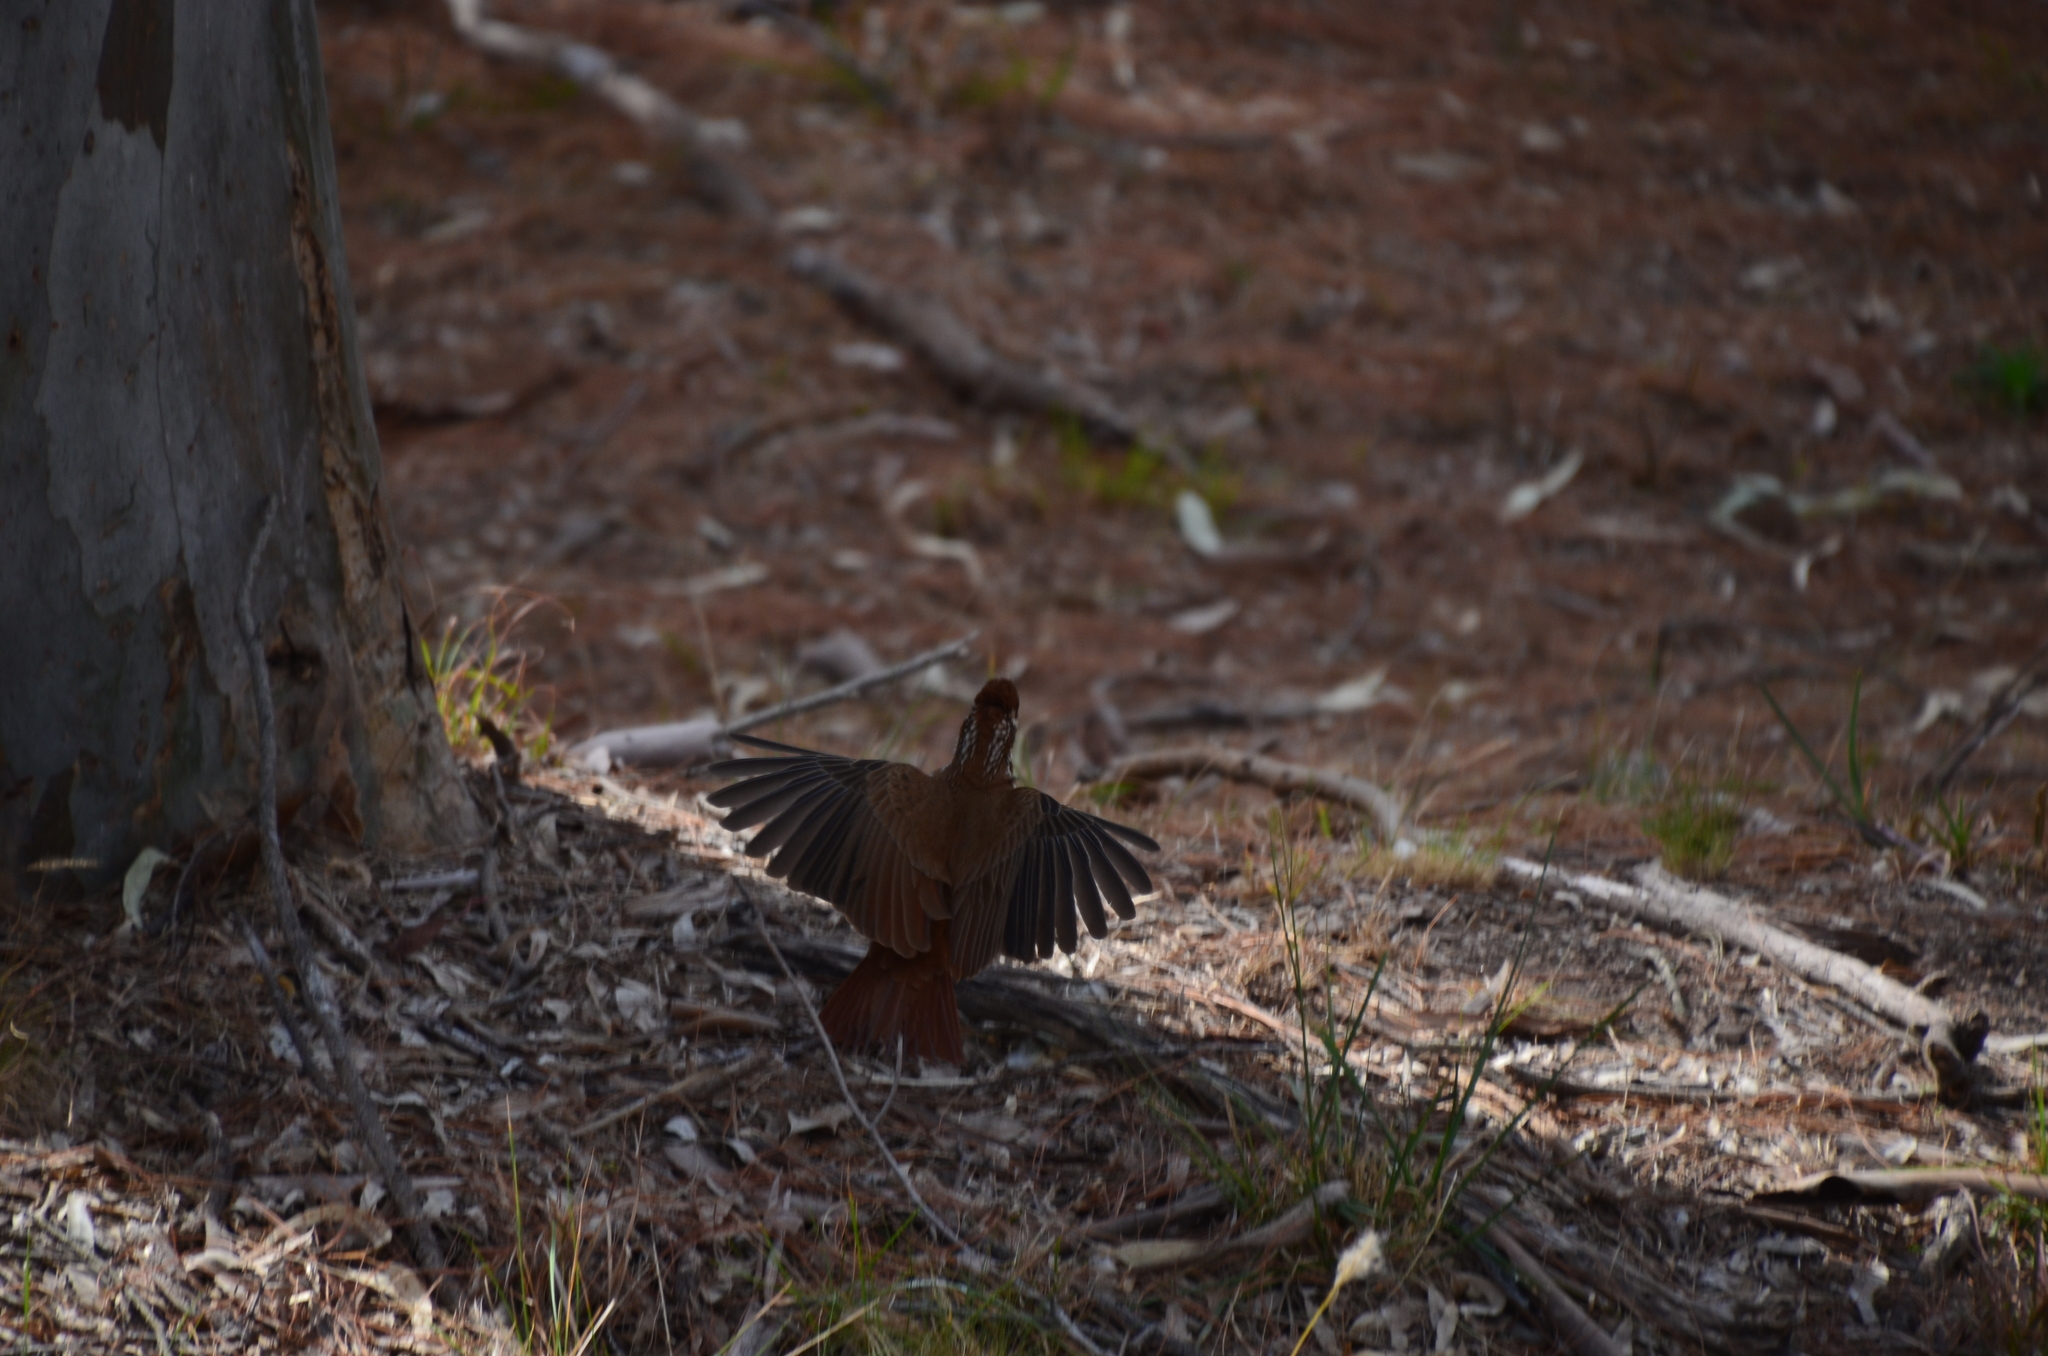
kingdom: Animalia
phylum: Chordata
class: Aves
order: Passeriformes
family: Furnariidae
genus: Drymornis
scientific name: Drymornis bridgesii
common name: Scimitar-billed woodcreeper
